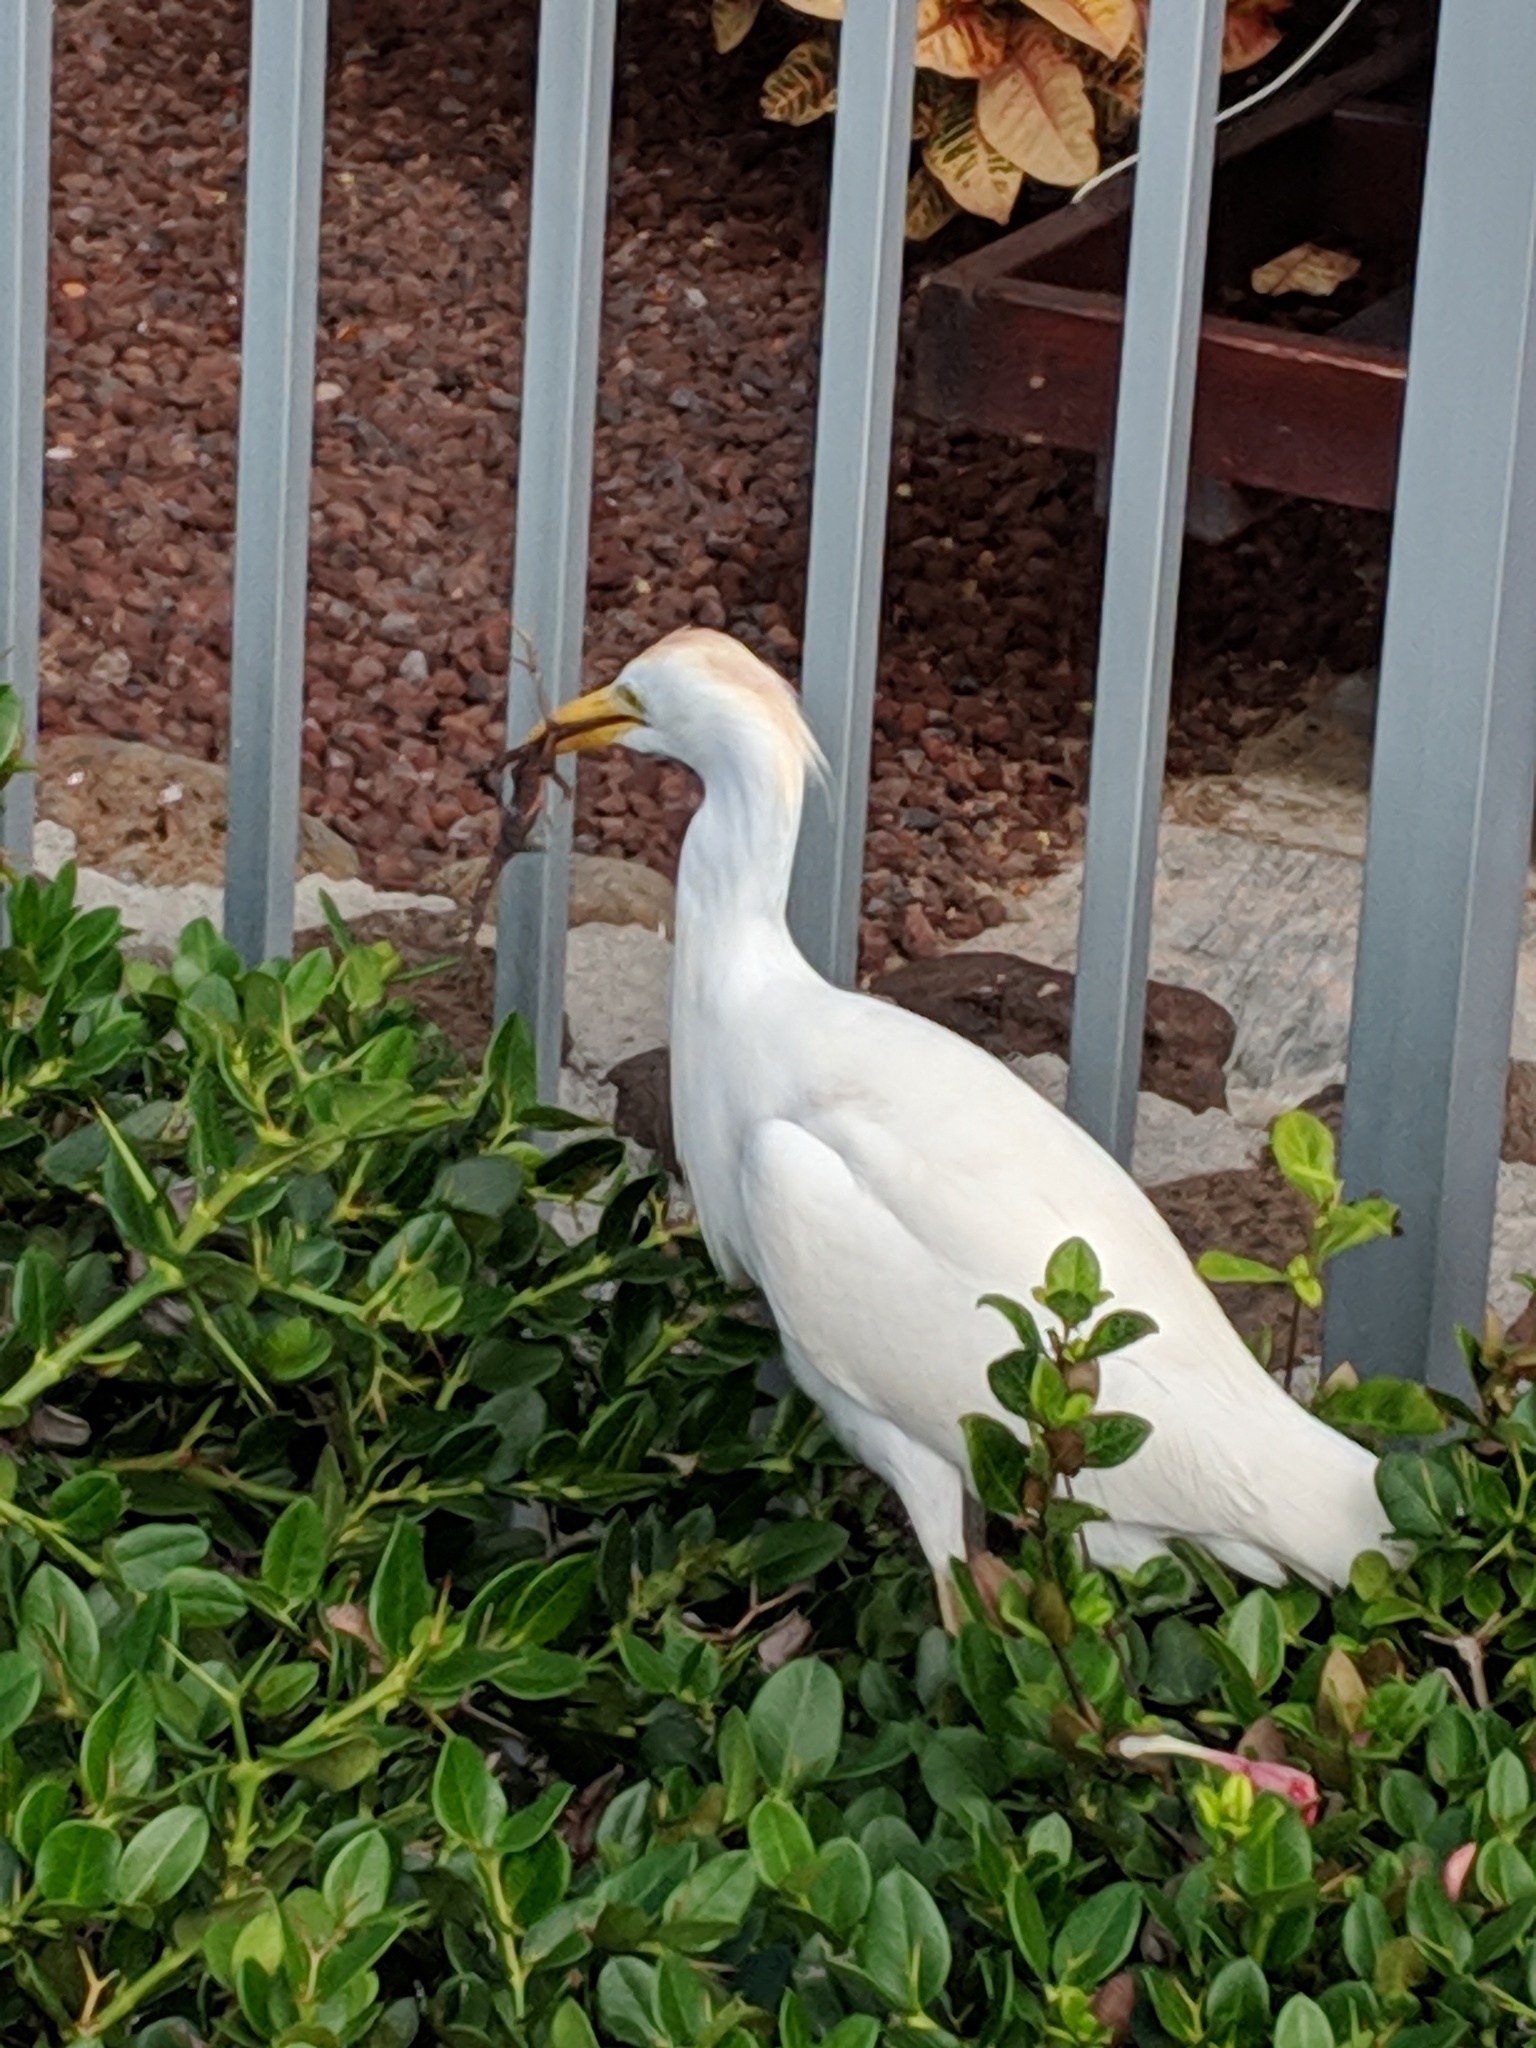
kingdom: Animalia
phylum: Chordata
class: Aves
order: Pelecaniformes
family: Ardeidae
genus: Bubulcus
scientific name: Bubulcus ibis
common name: Cattle egret
